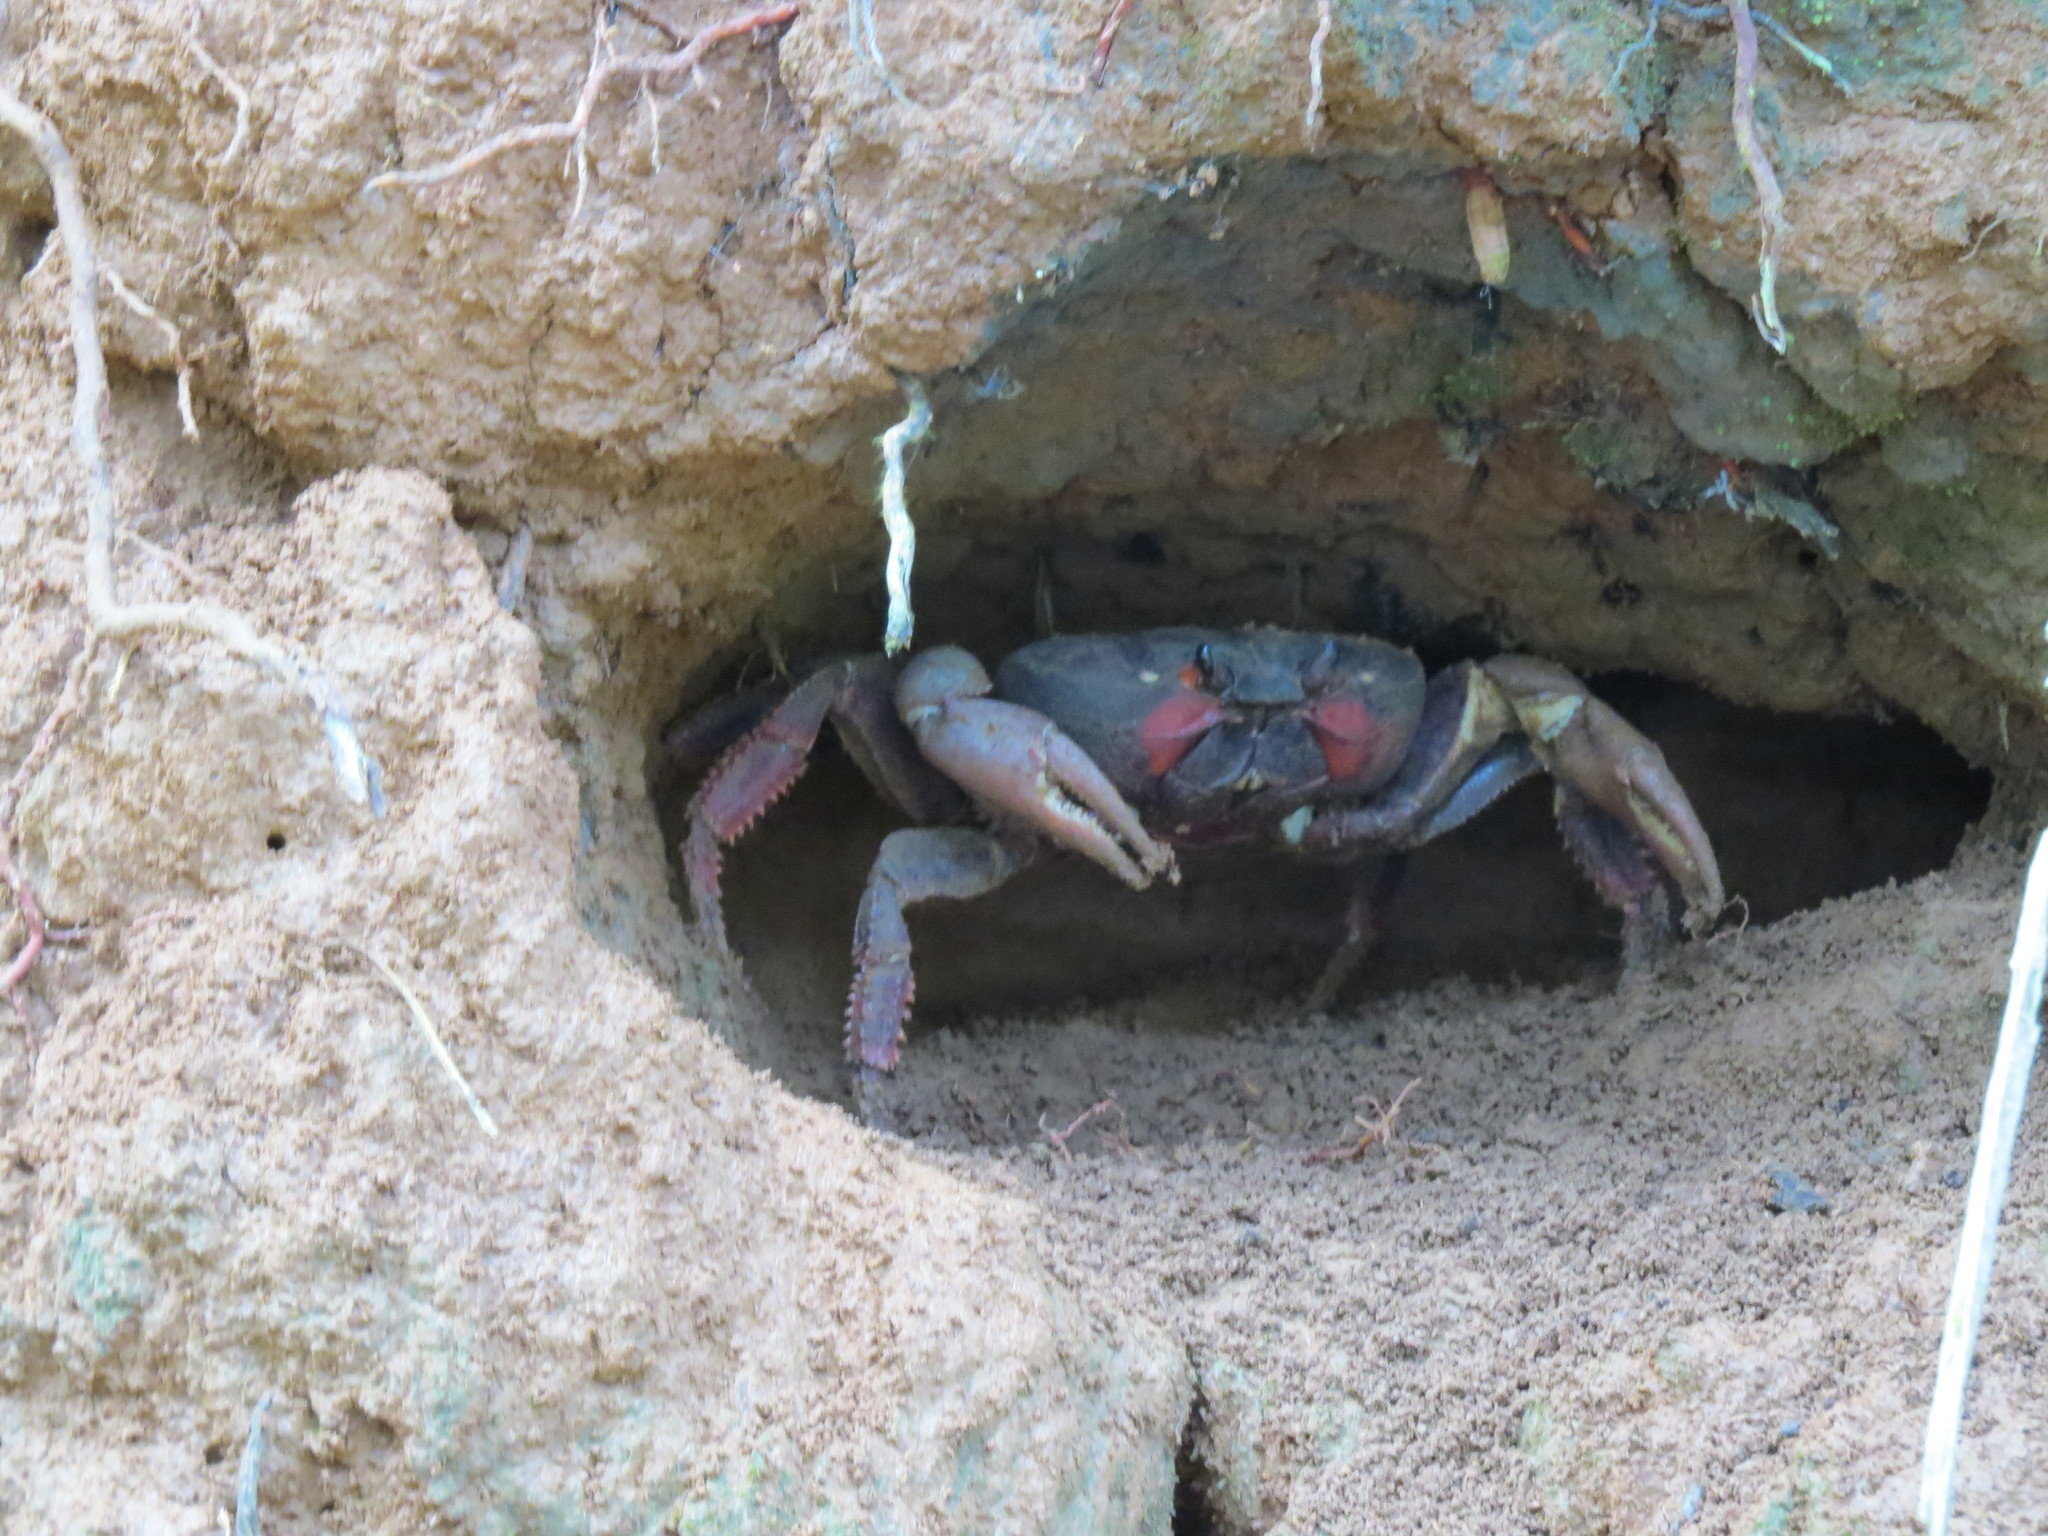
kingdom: Animalia
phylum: Arthropoda
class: Malacostraca
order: Decapoda
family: Gecarcinidae
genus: Johngarthia
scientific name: Johngarthia weileri
